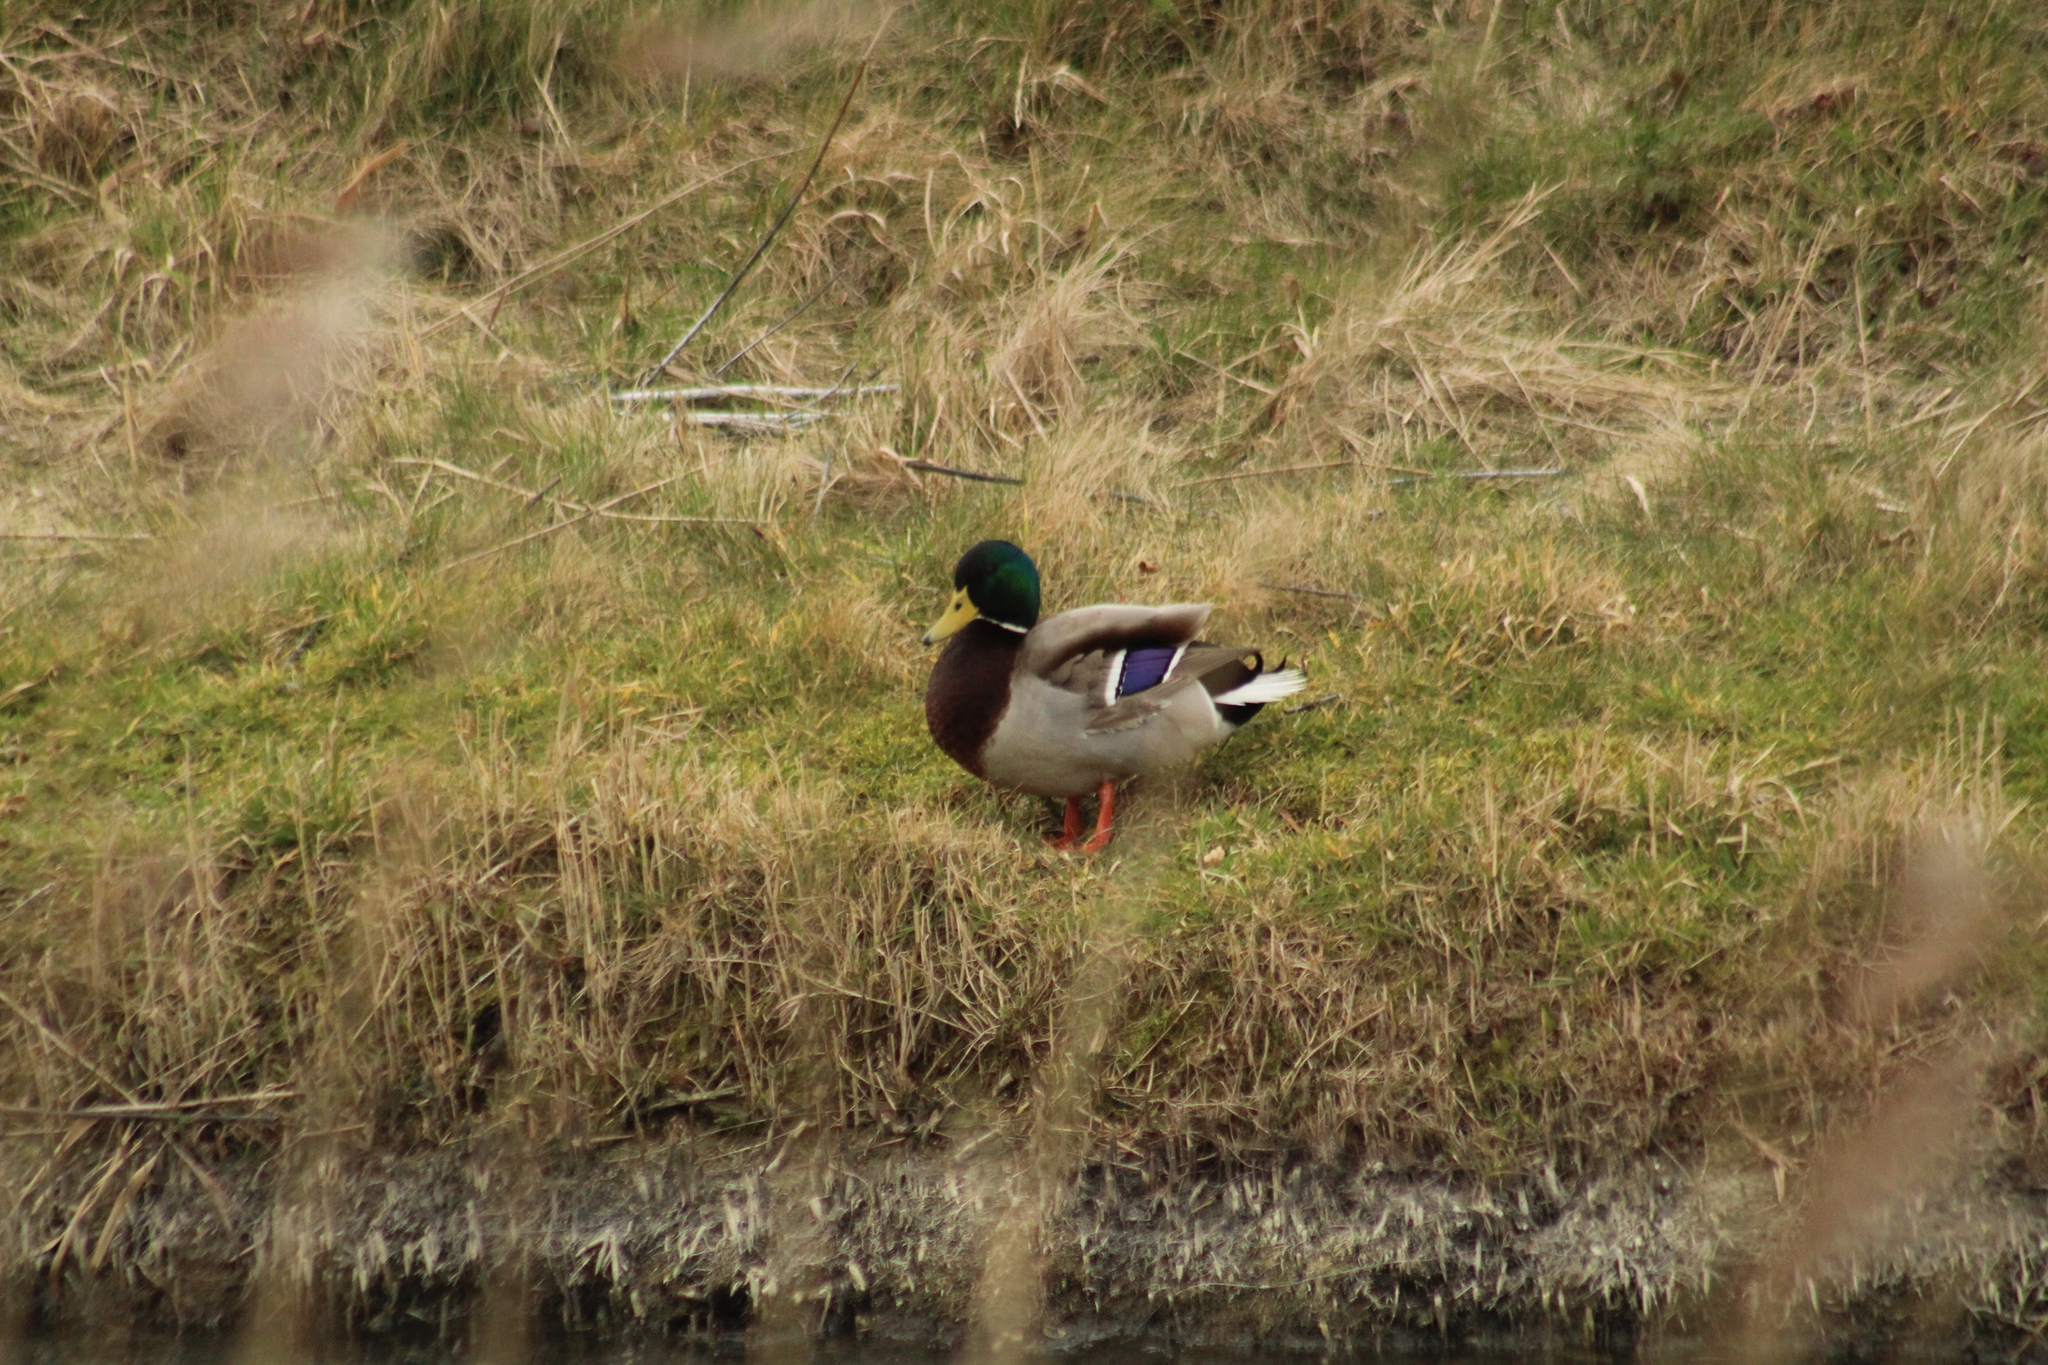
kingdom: Animalia
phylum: Chordata
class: Aves
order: Anseriformes
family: Anatidae
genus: Anas
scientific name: Anas platyrhynchos
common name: Mallard
